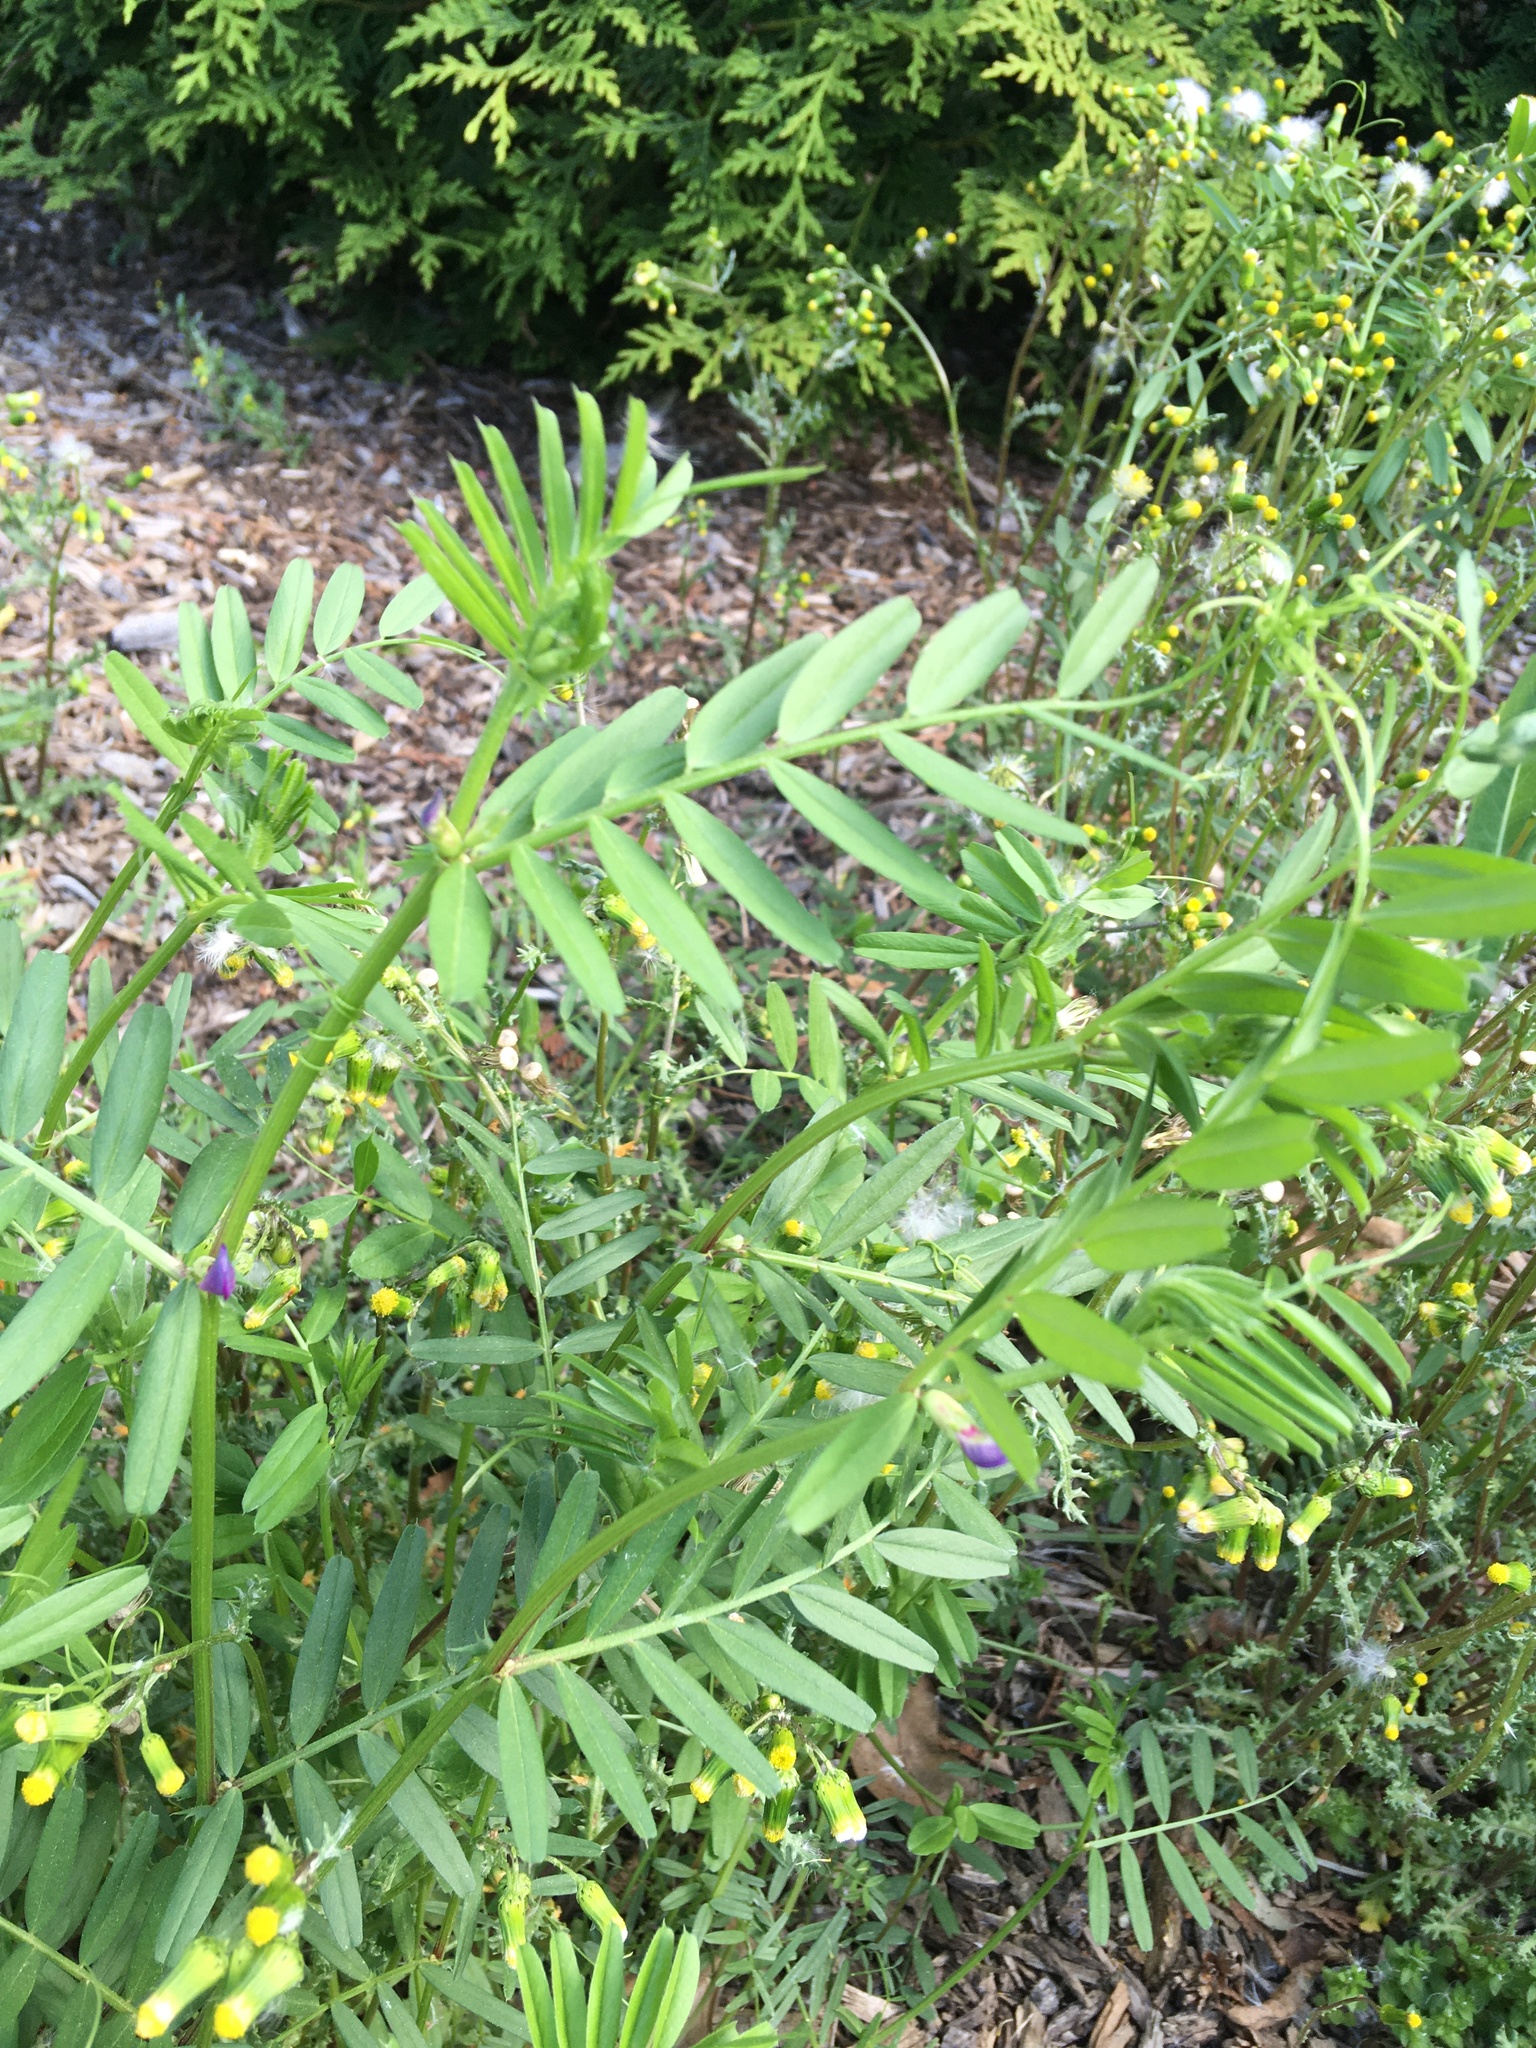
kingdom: Plantae
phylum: Tracheophyta
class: Magnoliopsida
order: Fabales
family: Fabaceae
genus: Vicia
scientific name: Vicia sativa
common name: Garden vetch
